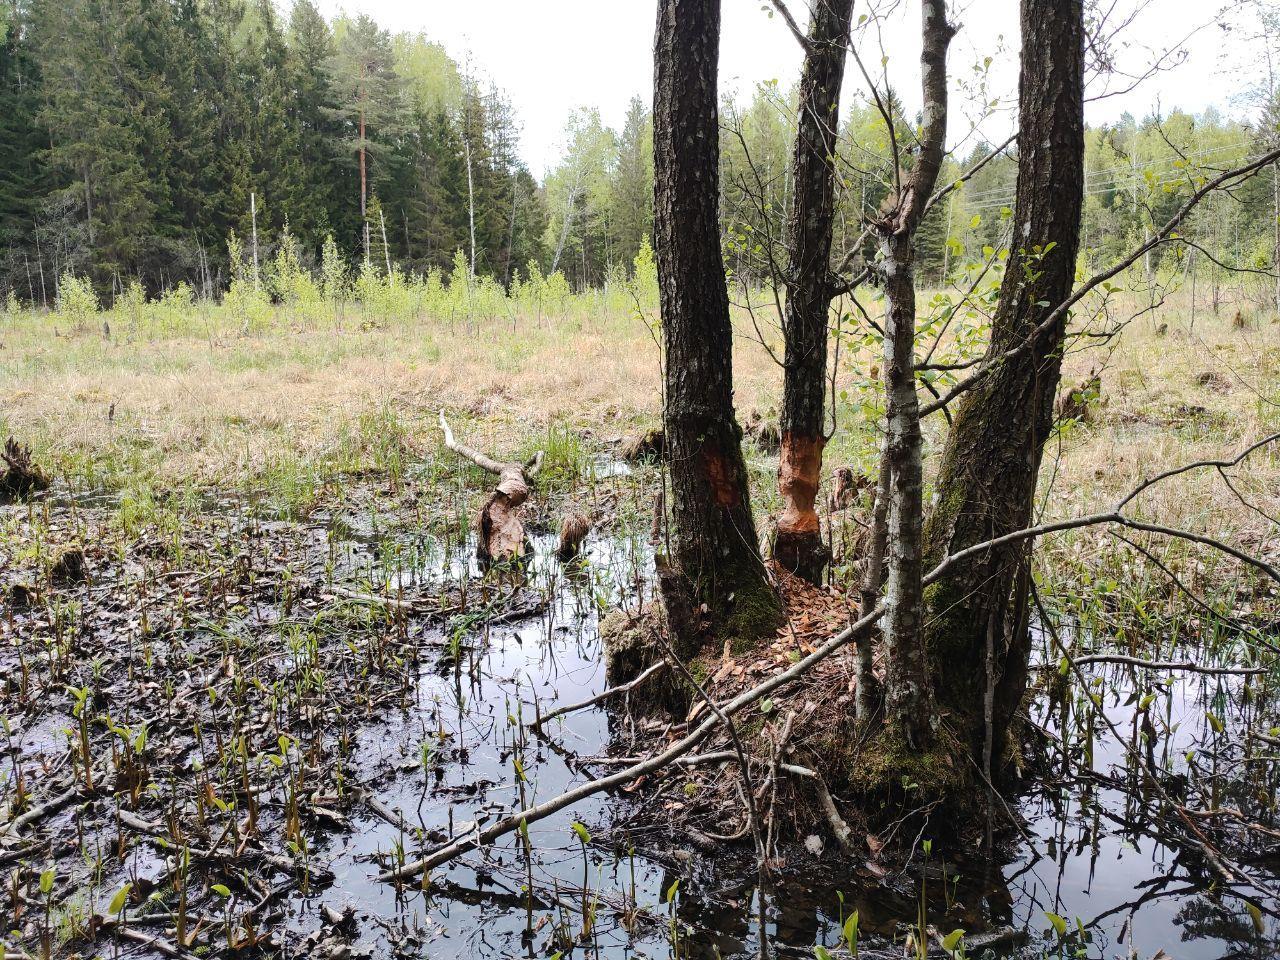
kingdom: Animalia
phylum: Chordata
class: Mammalia
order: Rodentia
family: Castoridae
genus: Castor
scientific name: Castor fiber
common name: Eurasian beaver
